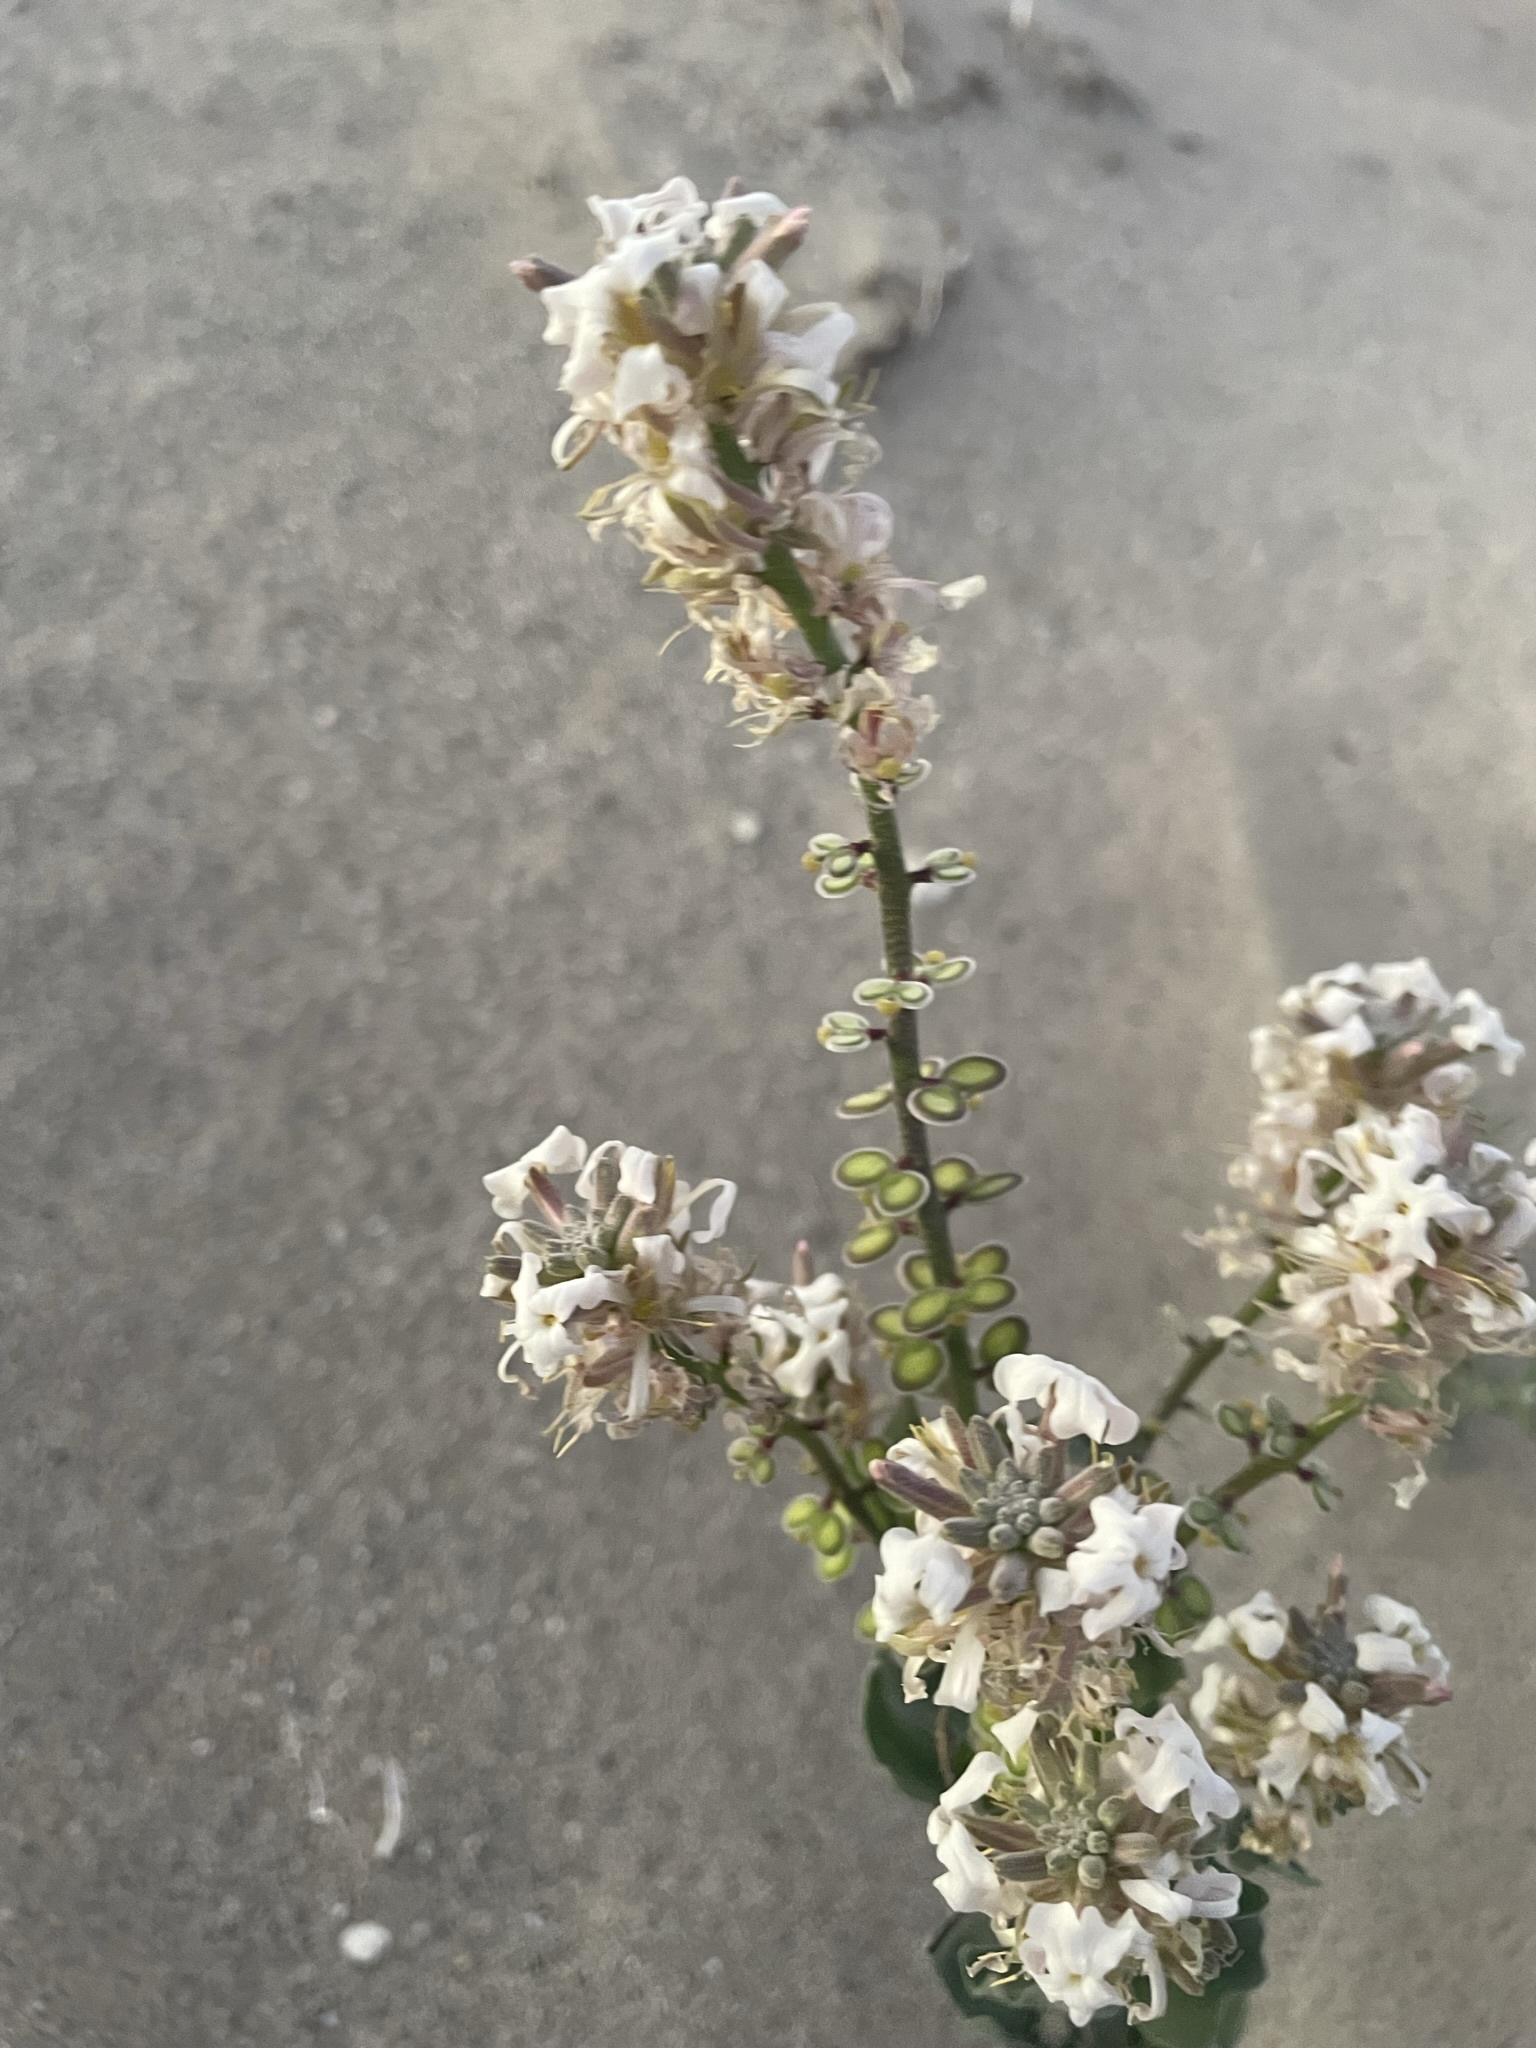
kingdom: Plantae
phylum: Tracheophyta
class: Magnoliopsida
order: Brassicales
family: Brassicaceae
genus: Dithyrea
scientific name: Dithyrea californica
